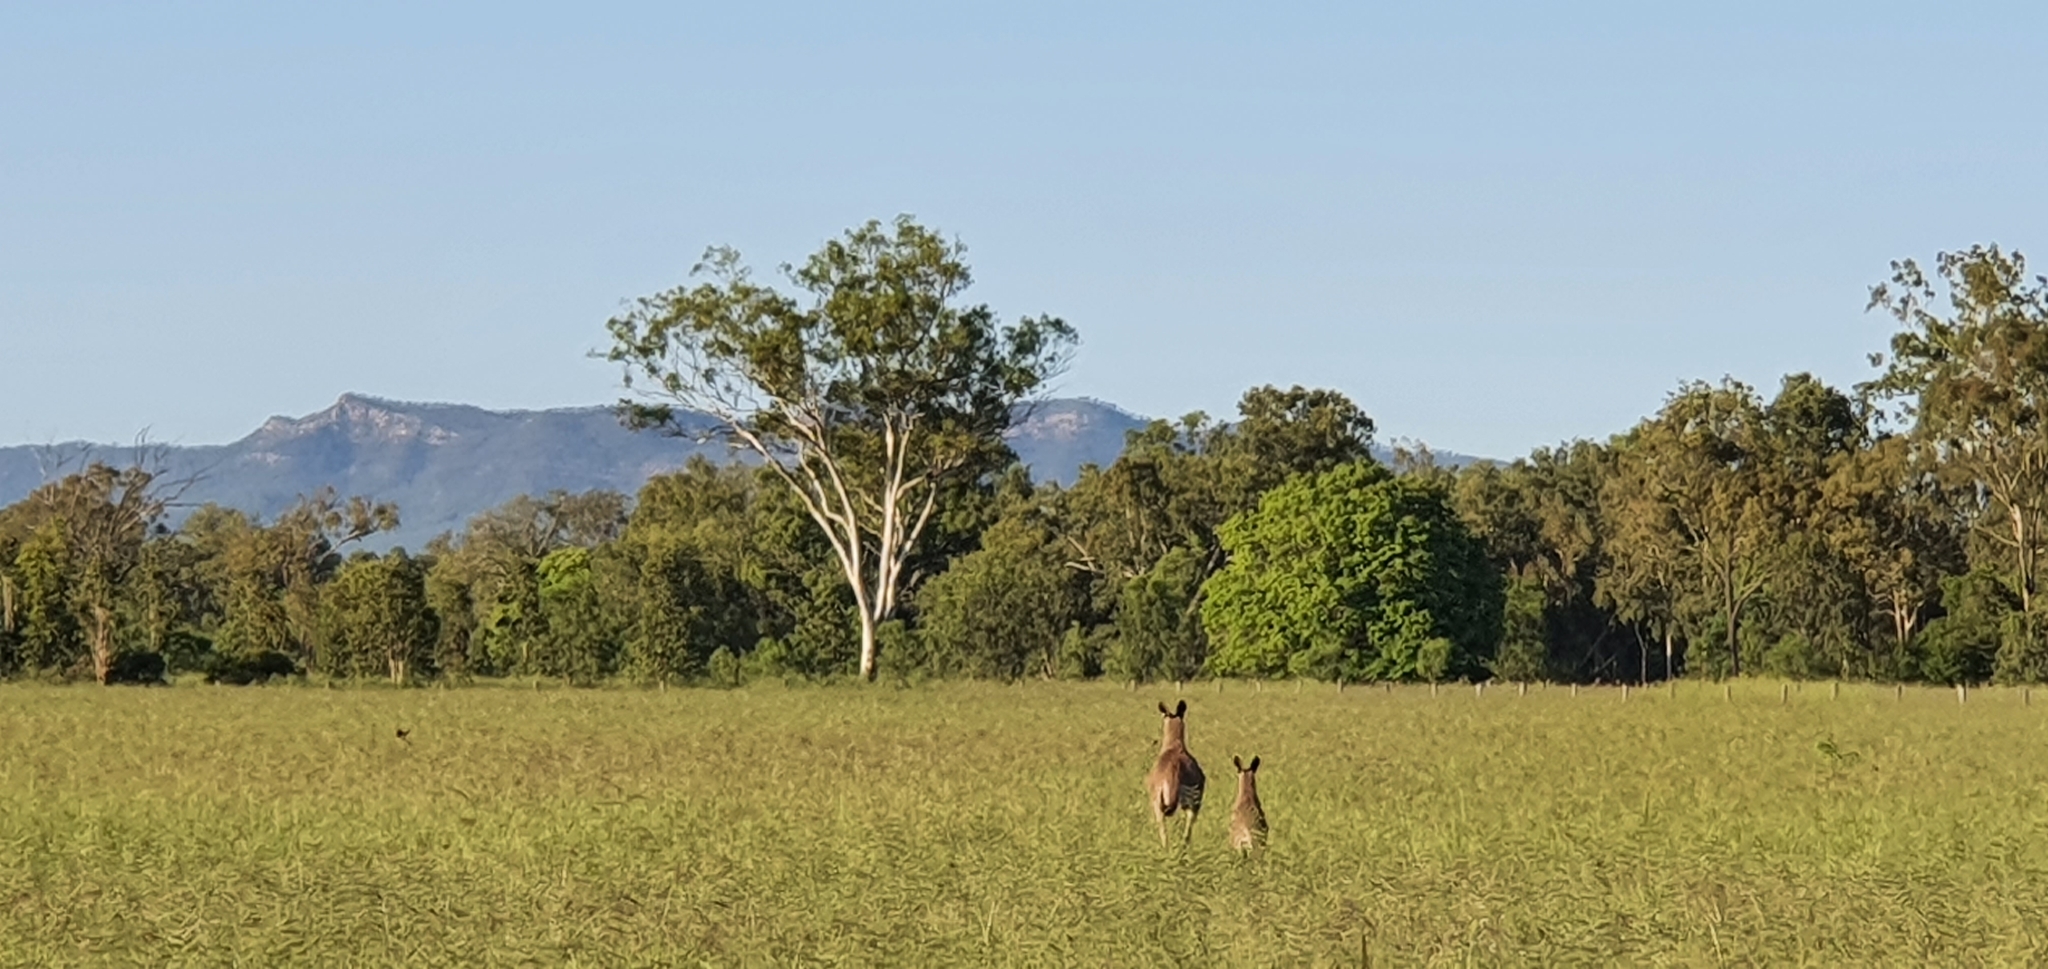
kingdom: Animalia
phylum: Chordata
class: Mammalia
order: Diprotodontia
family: Macropodidae
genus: Macropus
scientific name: Macropus giganteus
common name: Eastern grey kangaroo
